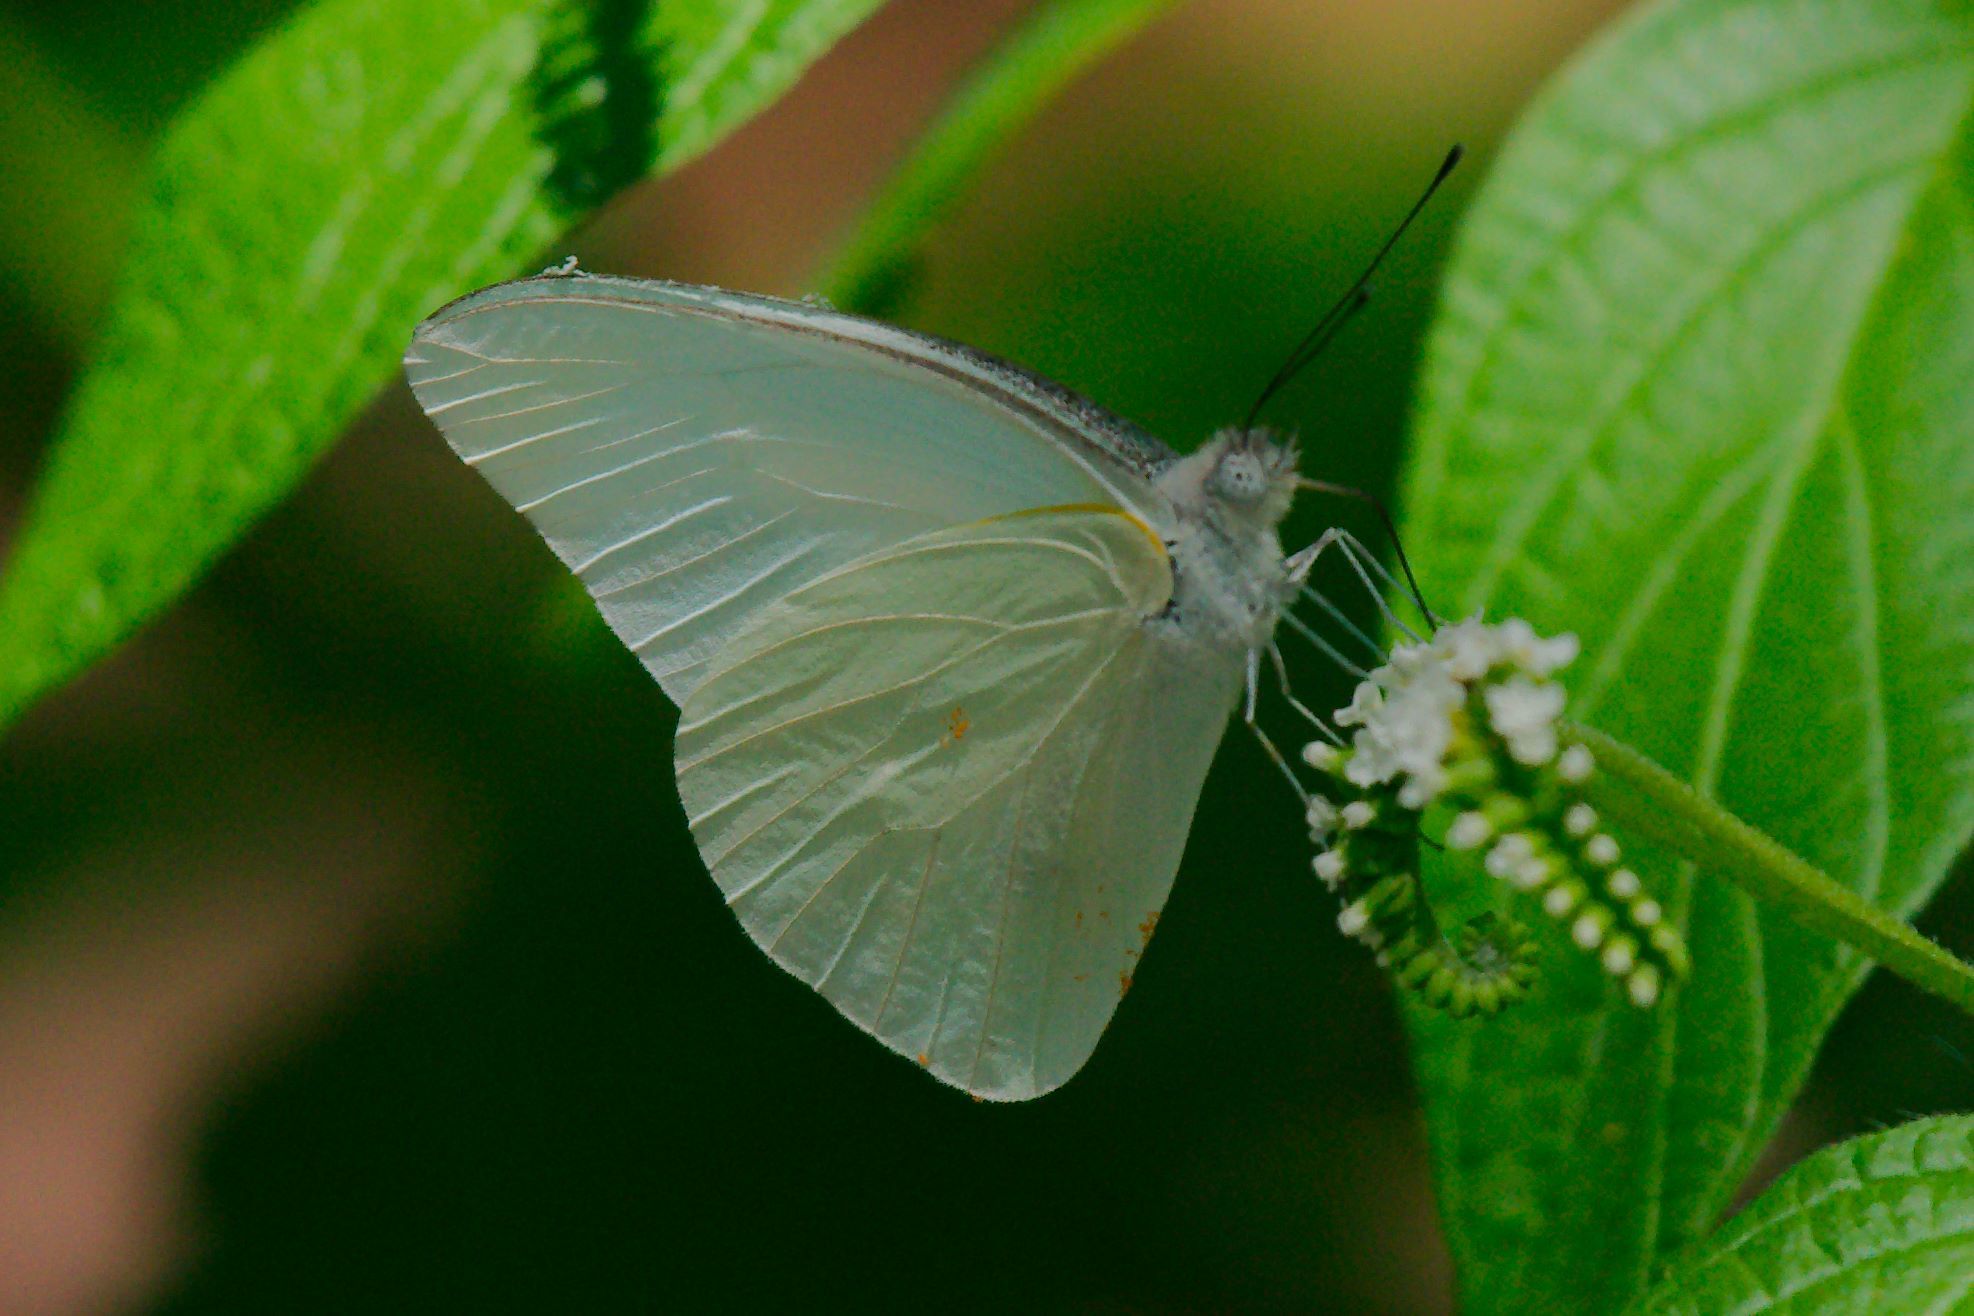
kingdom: Animalia
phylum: Arthropoda
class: Insecta
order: Lepidoptera
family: Pieridae
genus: Glutophrissa
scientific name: Glutophrissa drusilla
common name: Florida white
